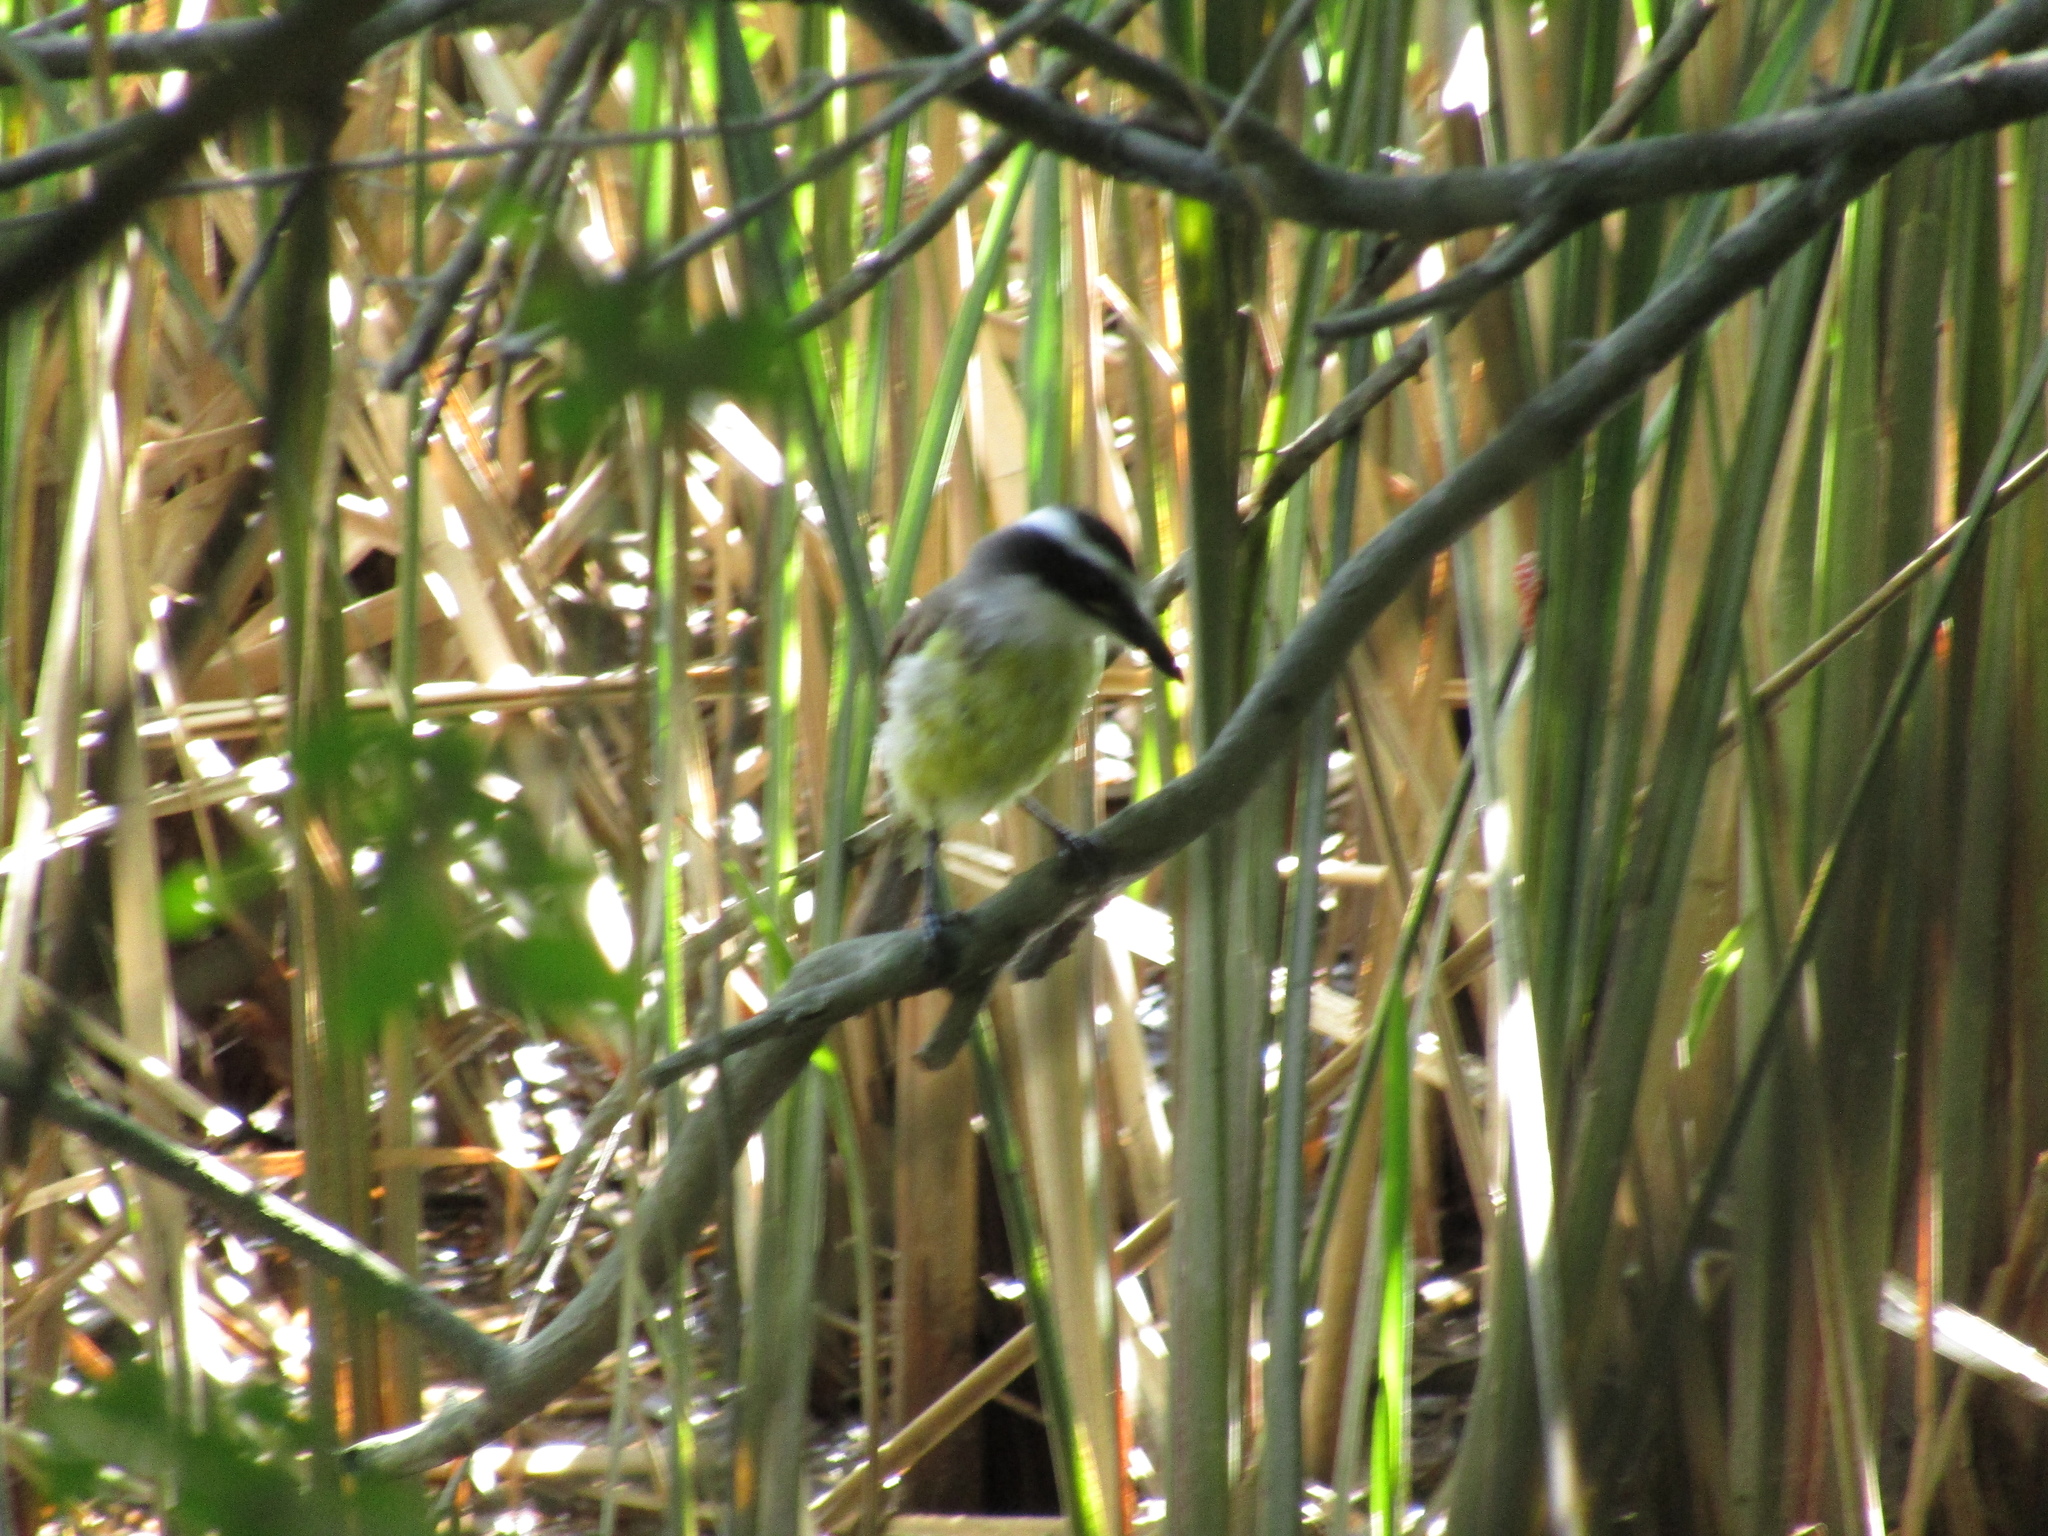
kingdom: Animalia
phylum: Chordata
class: Aves
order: Passeriformes
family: Tyrannidae
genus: Pitangus
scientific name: Pitangus sulphuratus
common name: Great kiskadee
